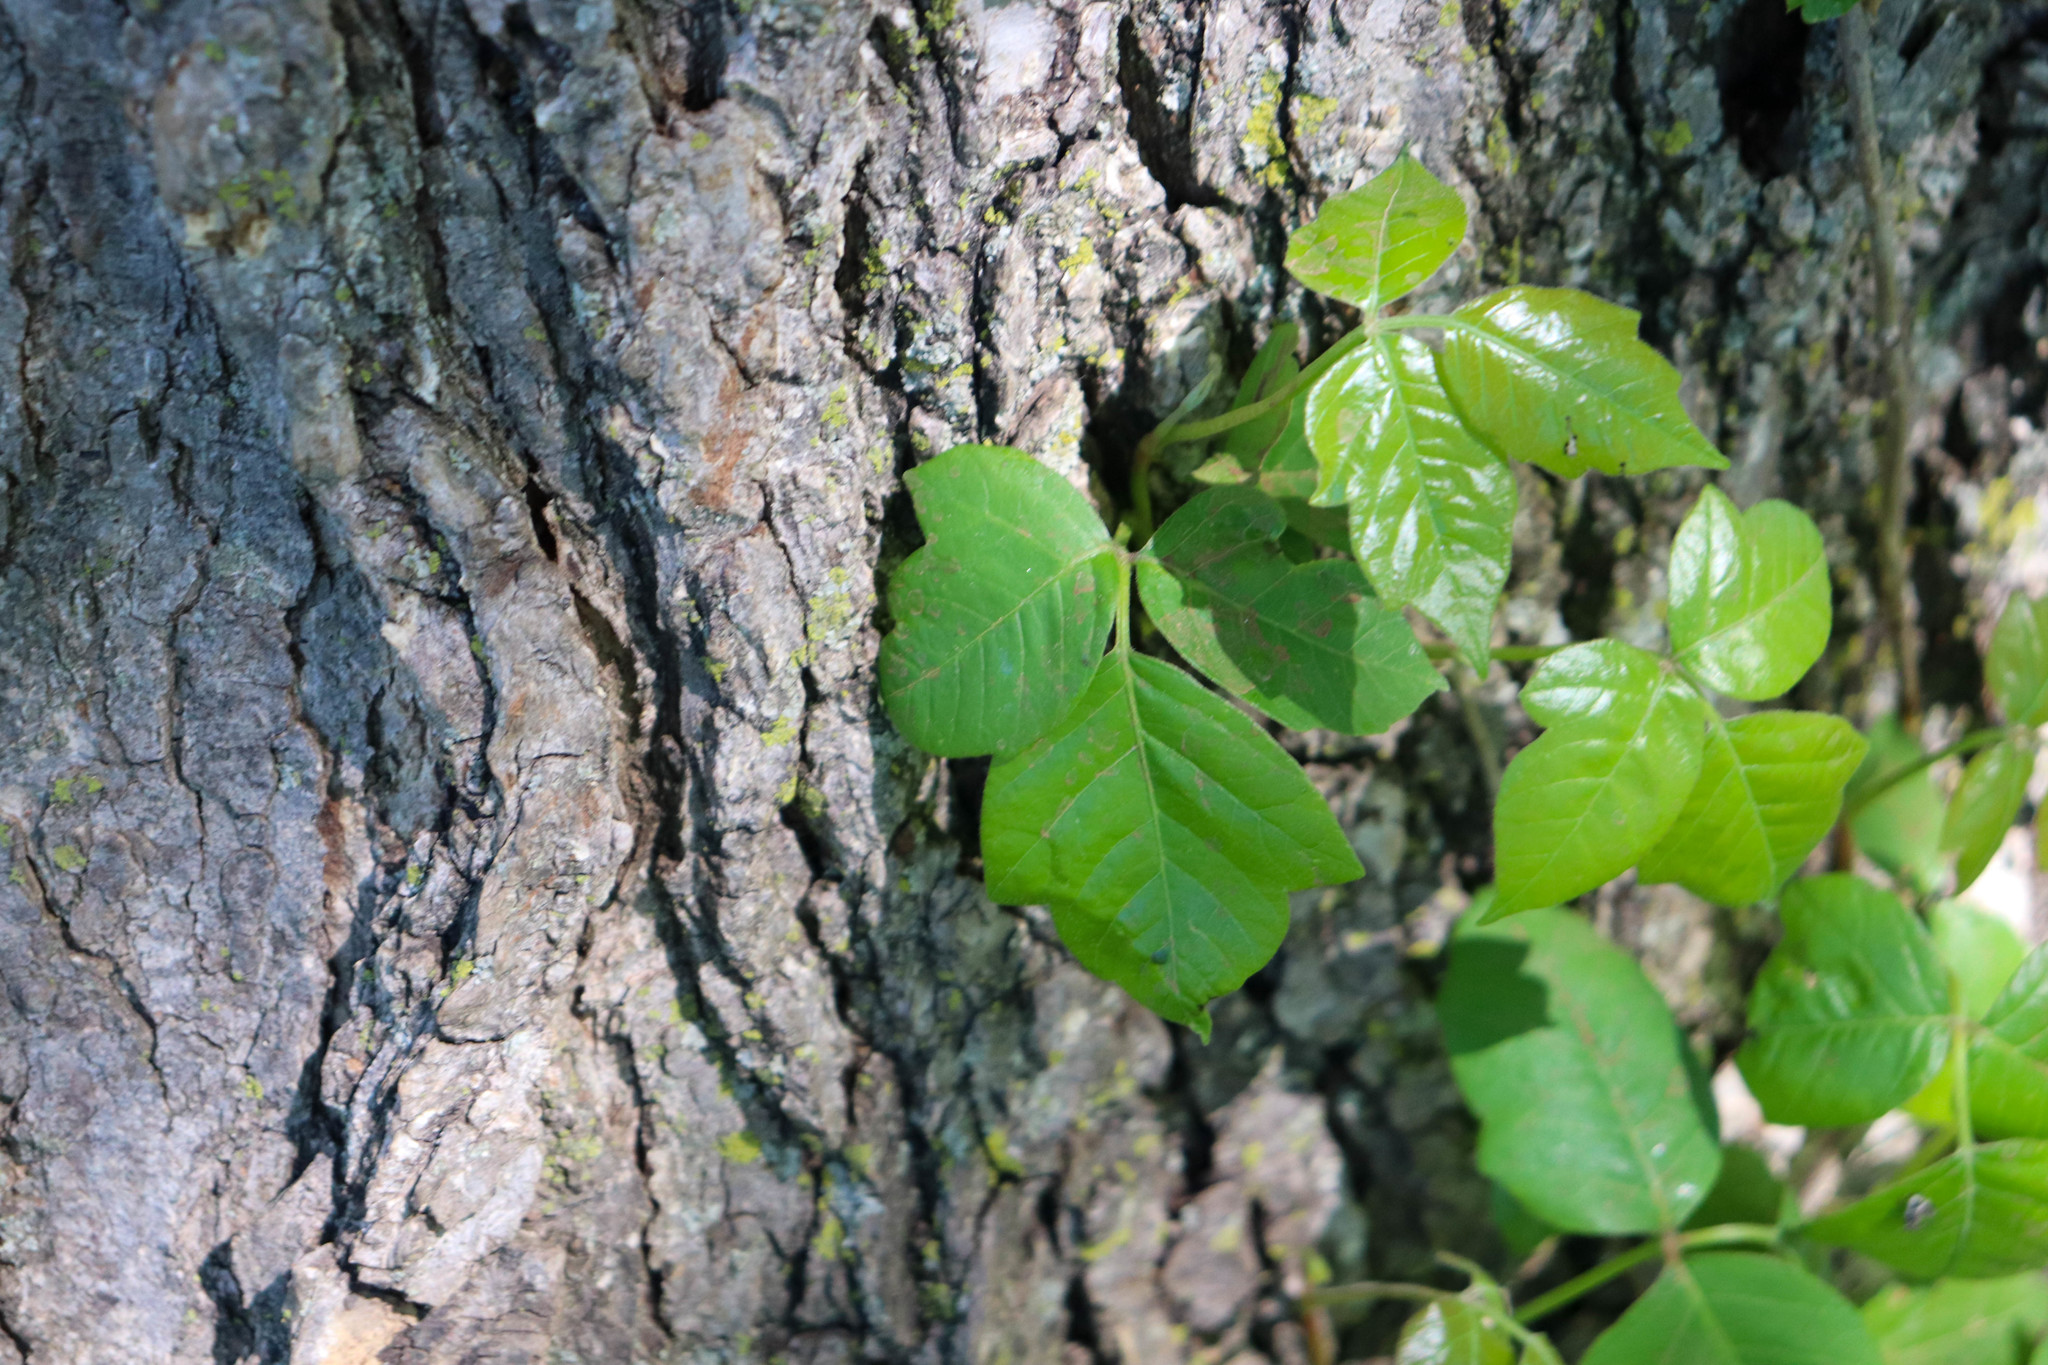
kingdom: Plantae
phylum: Tracheophyta
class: Magnoliopsida
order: Sapindales
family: Anacardiaceae
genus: Toxicodendron
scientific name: Toxicodendron radicans
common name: Poison ivy
